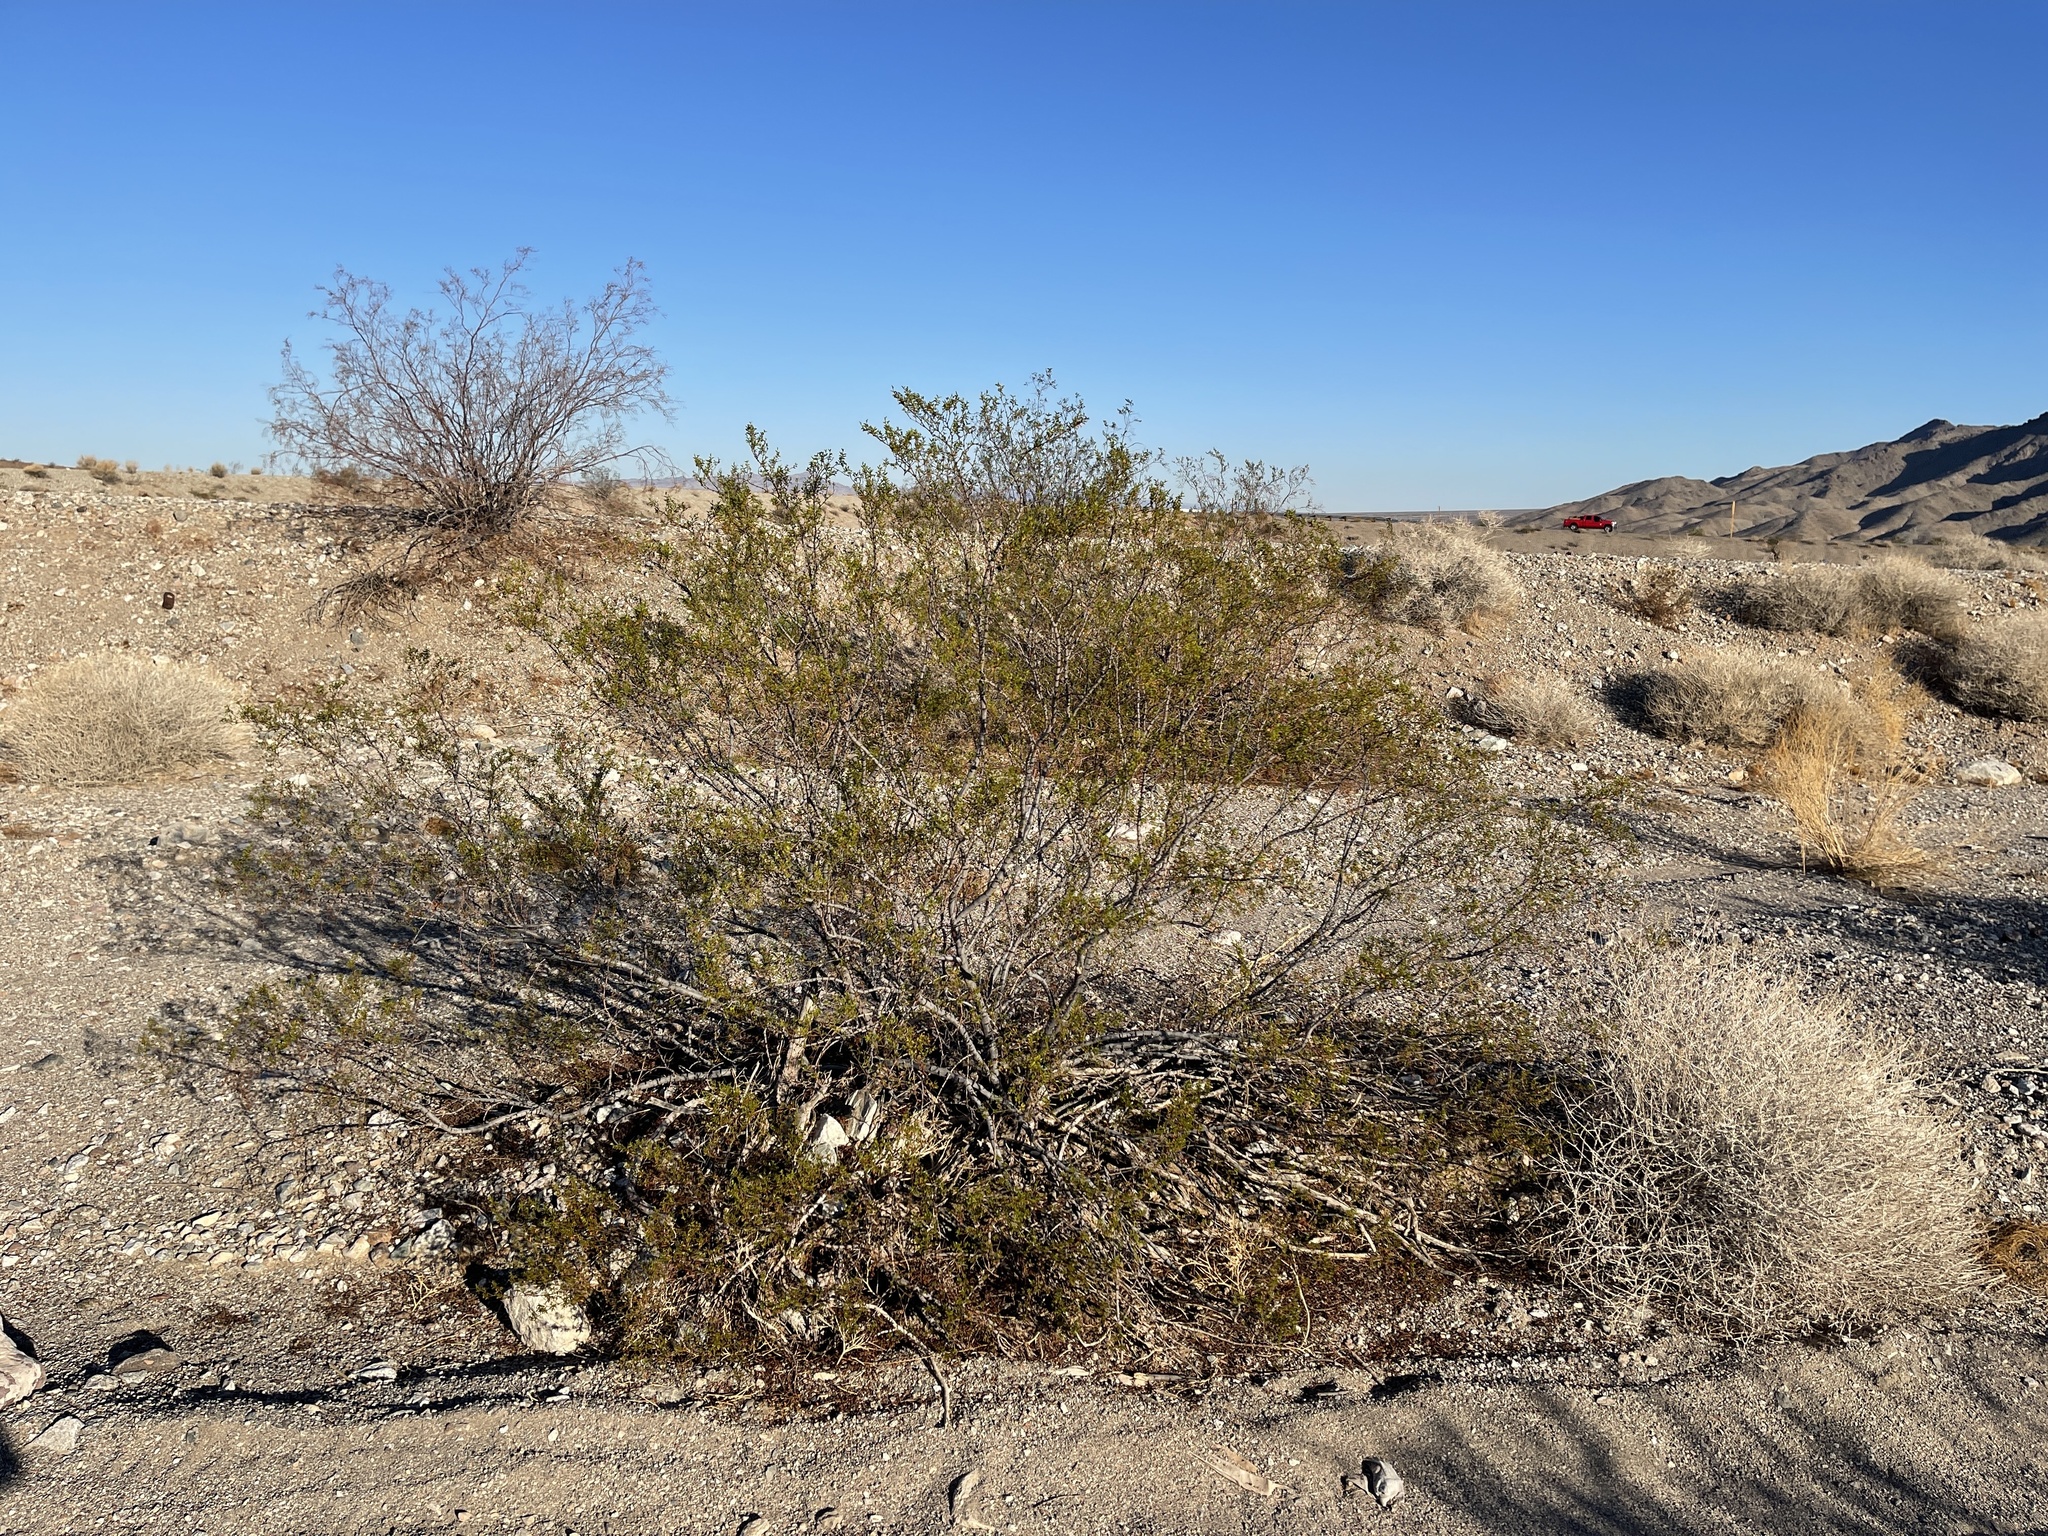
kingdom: Plantae
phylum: Tracheophyta
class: Magnoliopsida
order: Zygophyllales
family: Zygophyllaceae
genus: Larrea
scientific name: Larrea tridentata
